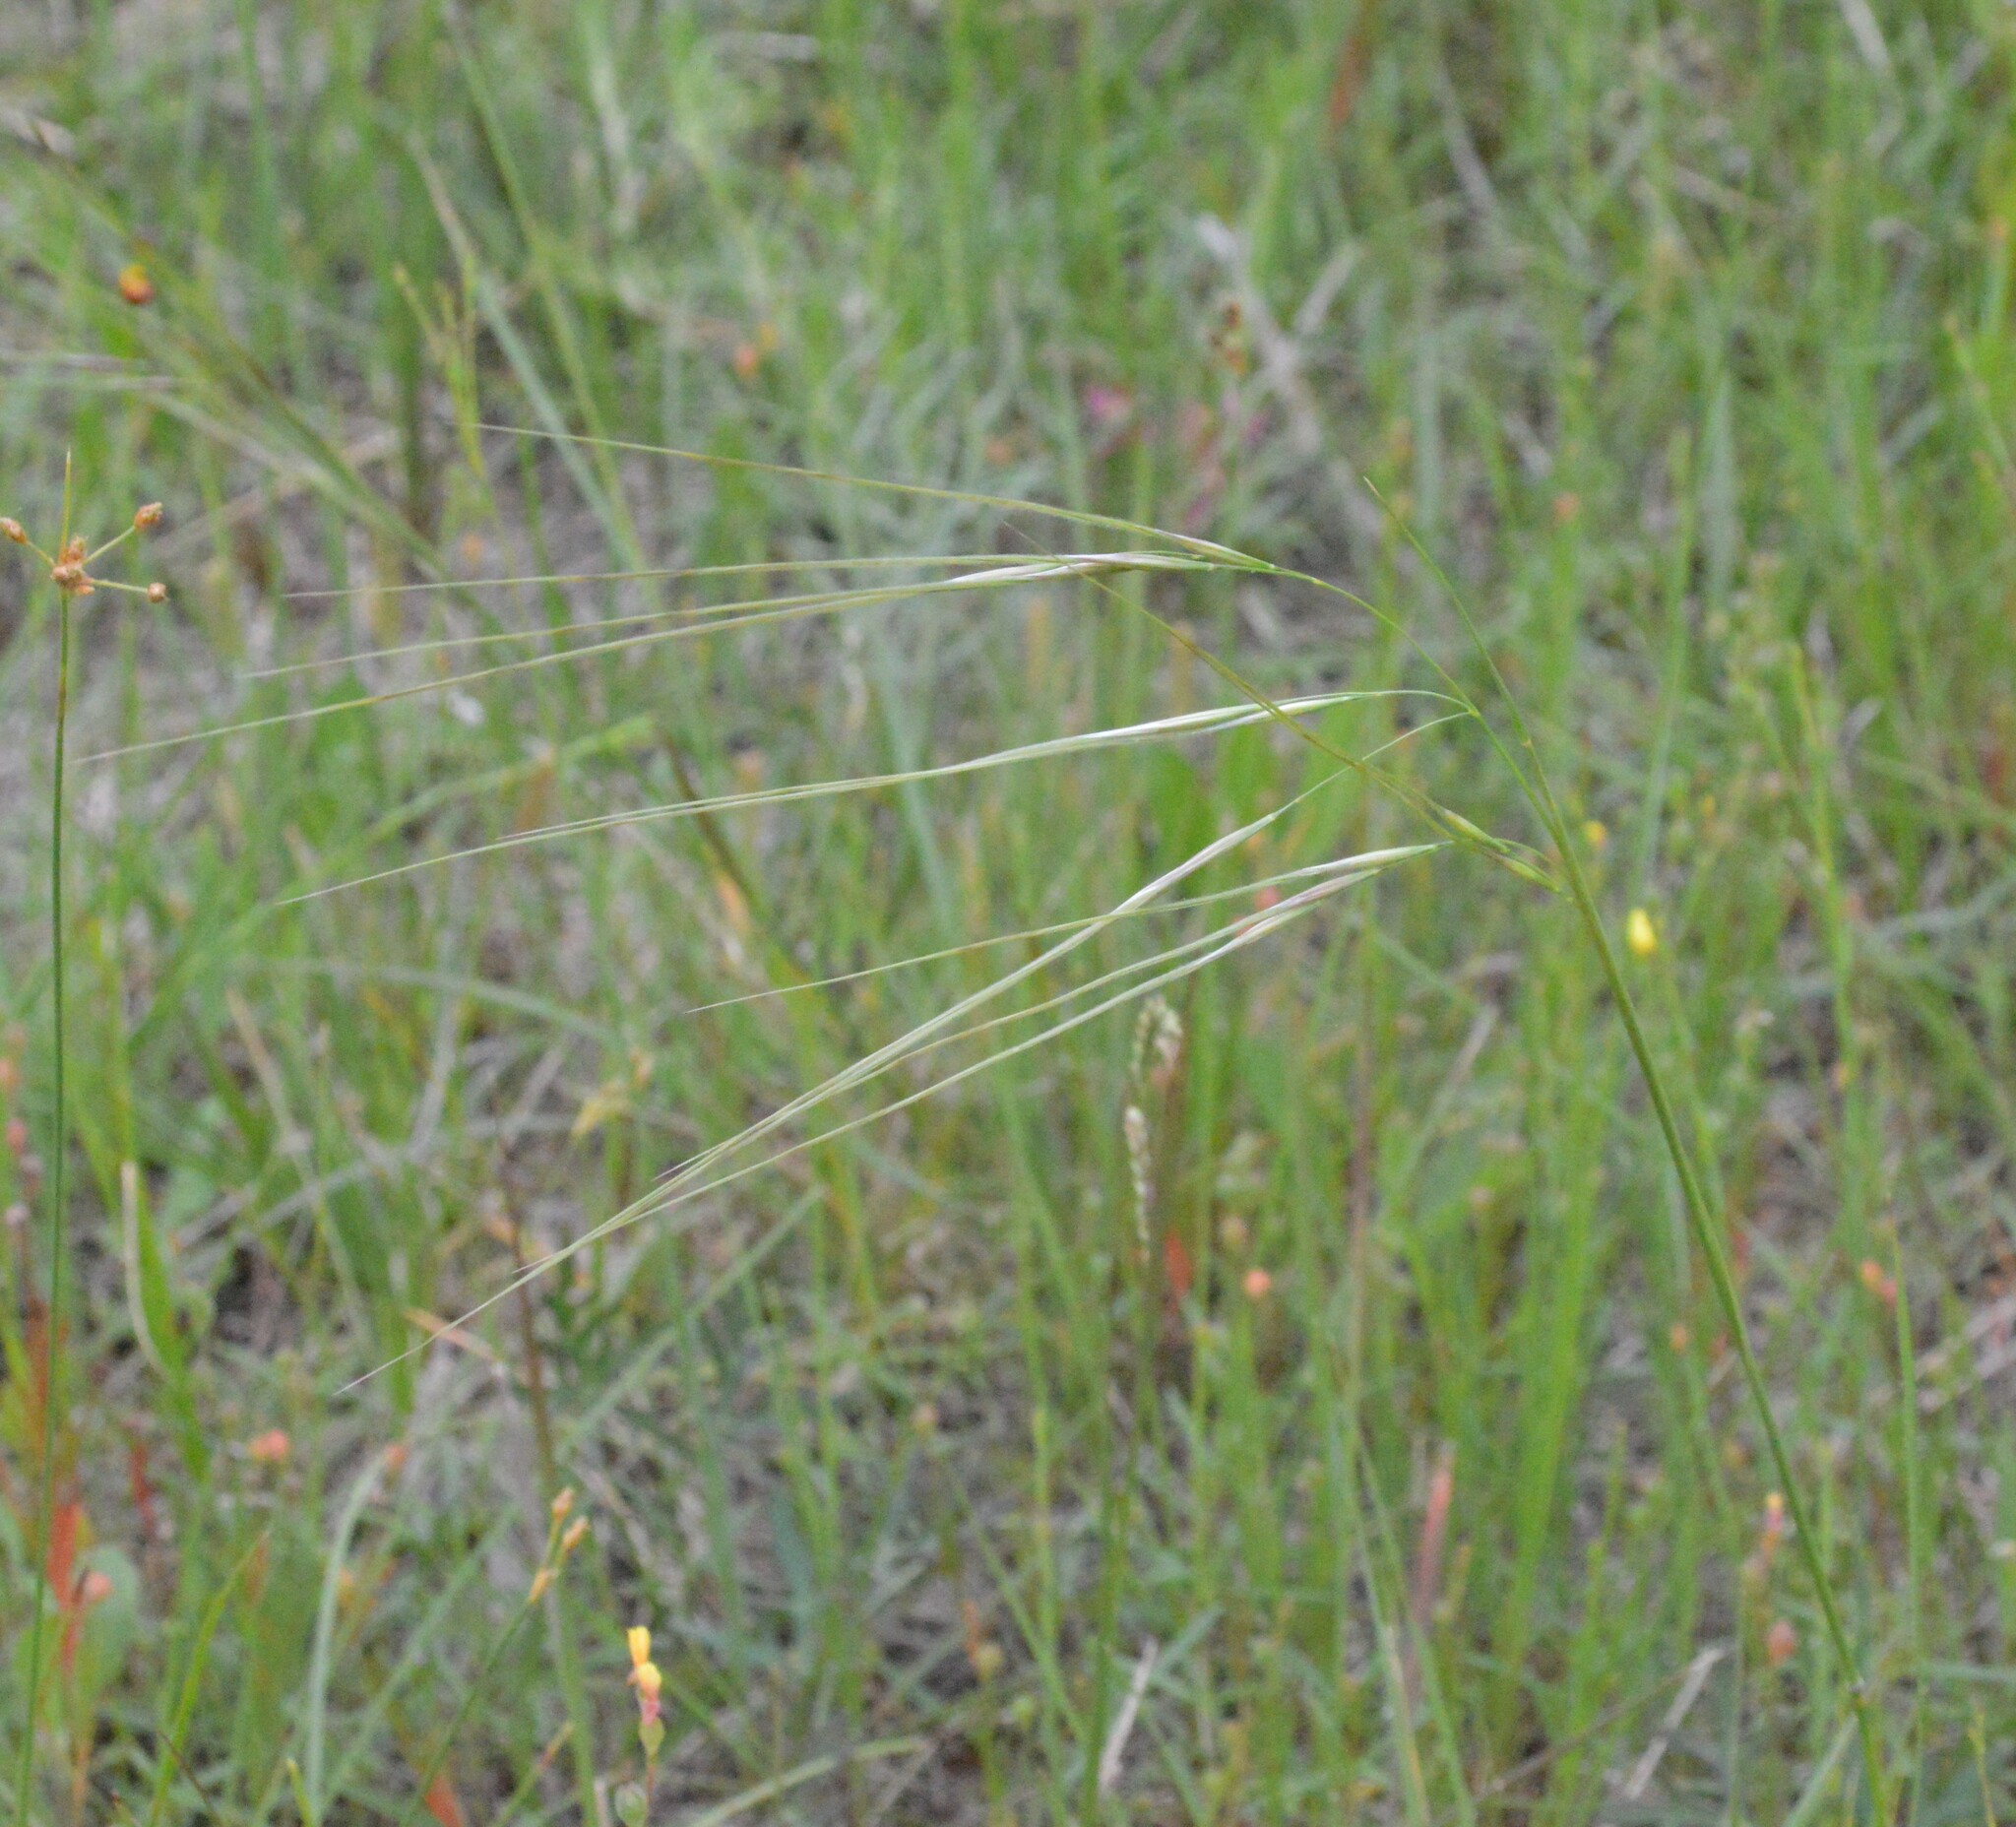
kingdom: Plantae
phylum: Tracheophyta
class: Liliopsida
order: Poales
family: Poaceae
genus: Nassella
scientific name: Nassella leucotricha
